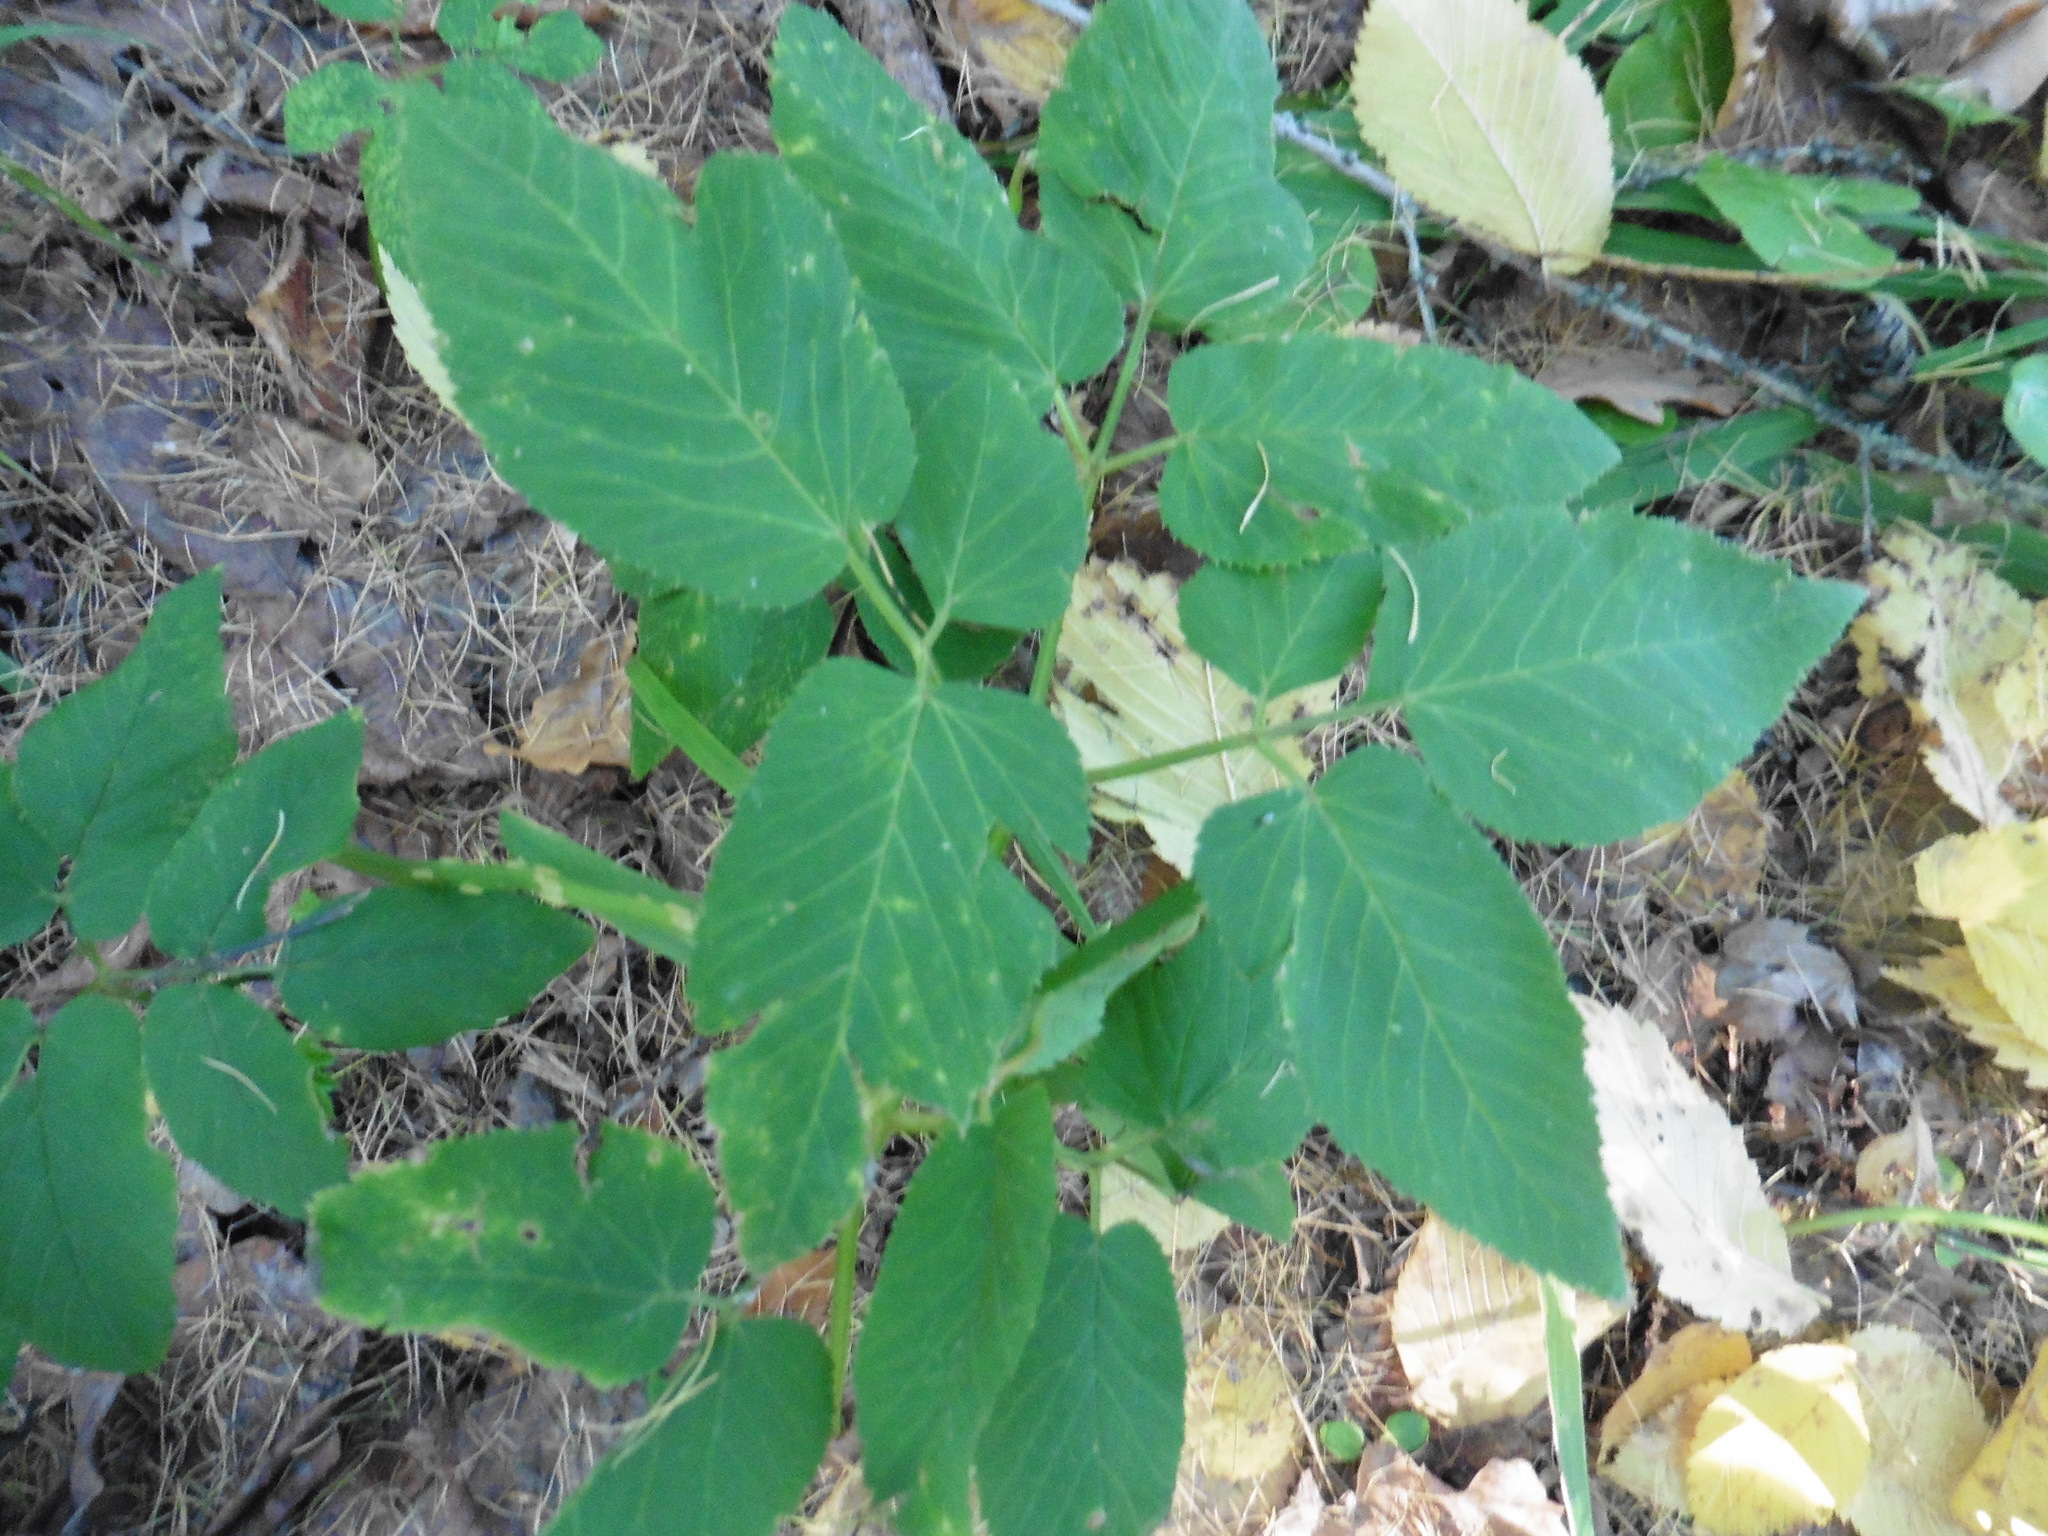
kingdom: Plantae
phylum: Tracheophyta
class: Magnoliopsida
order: Apiales
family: Apiaceae
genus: Aegopodium
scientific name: Aegopodium podagraria
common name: Ground-elder
